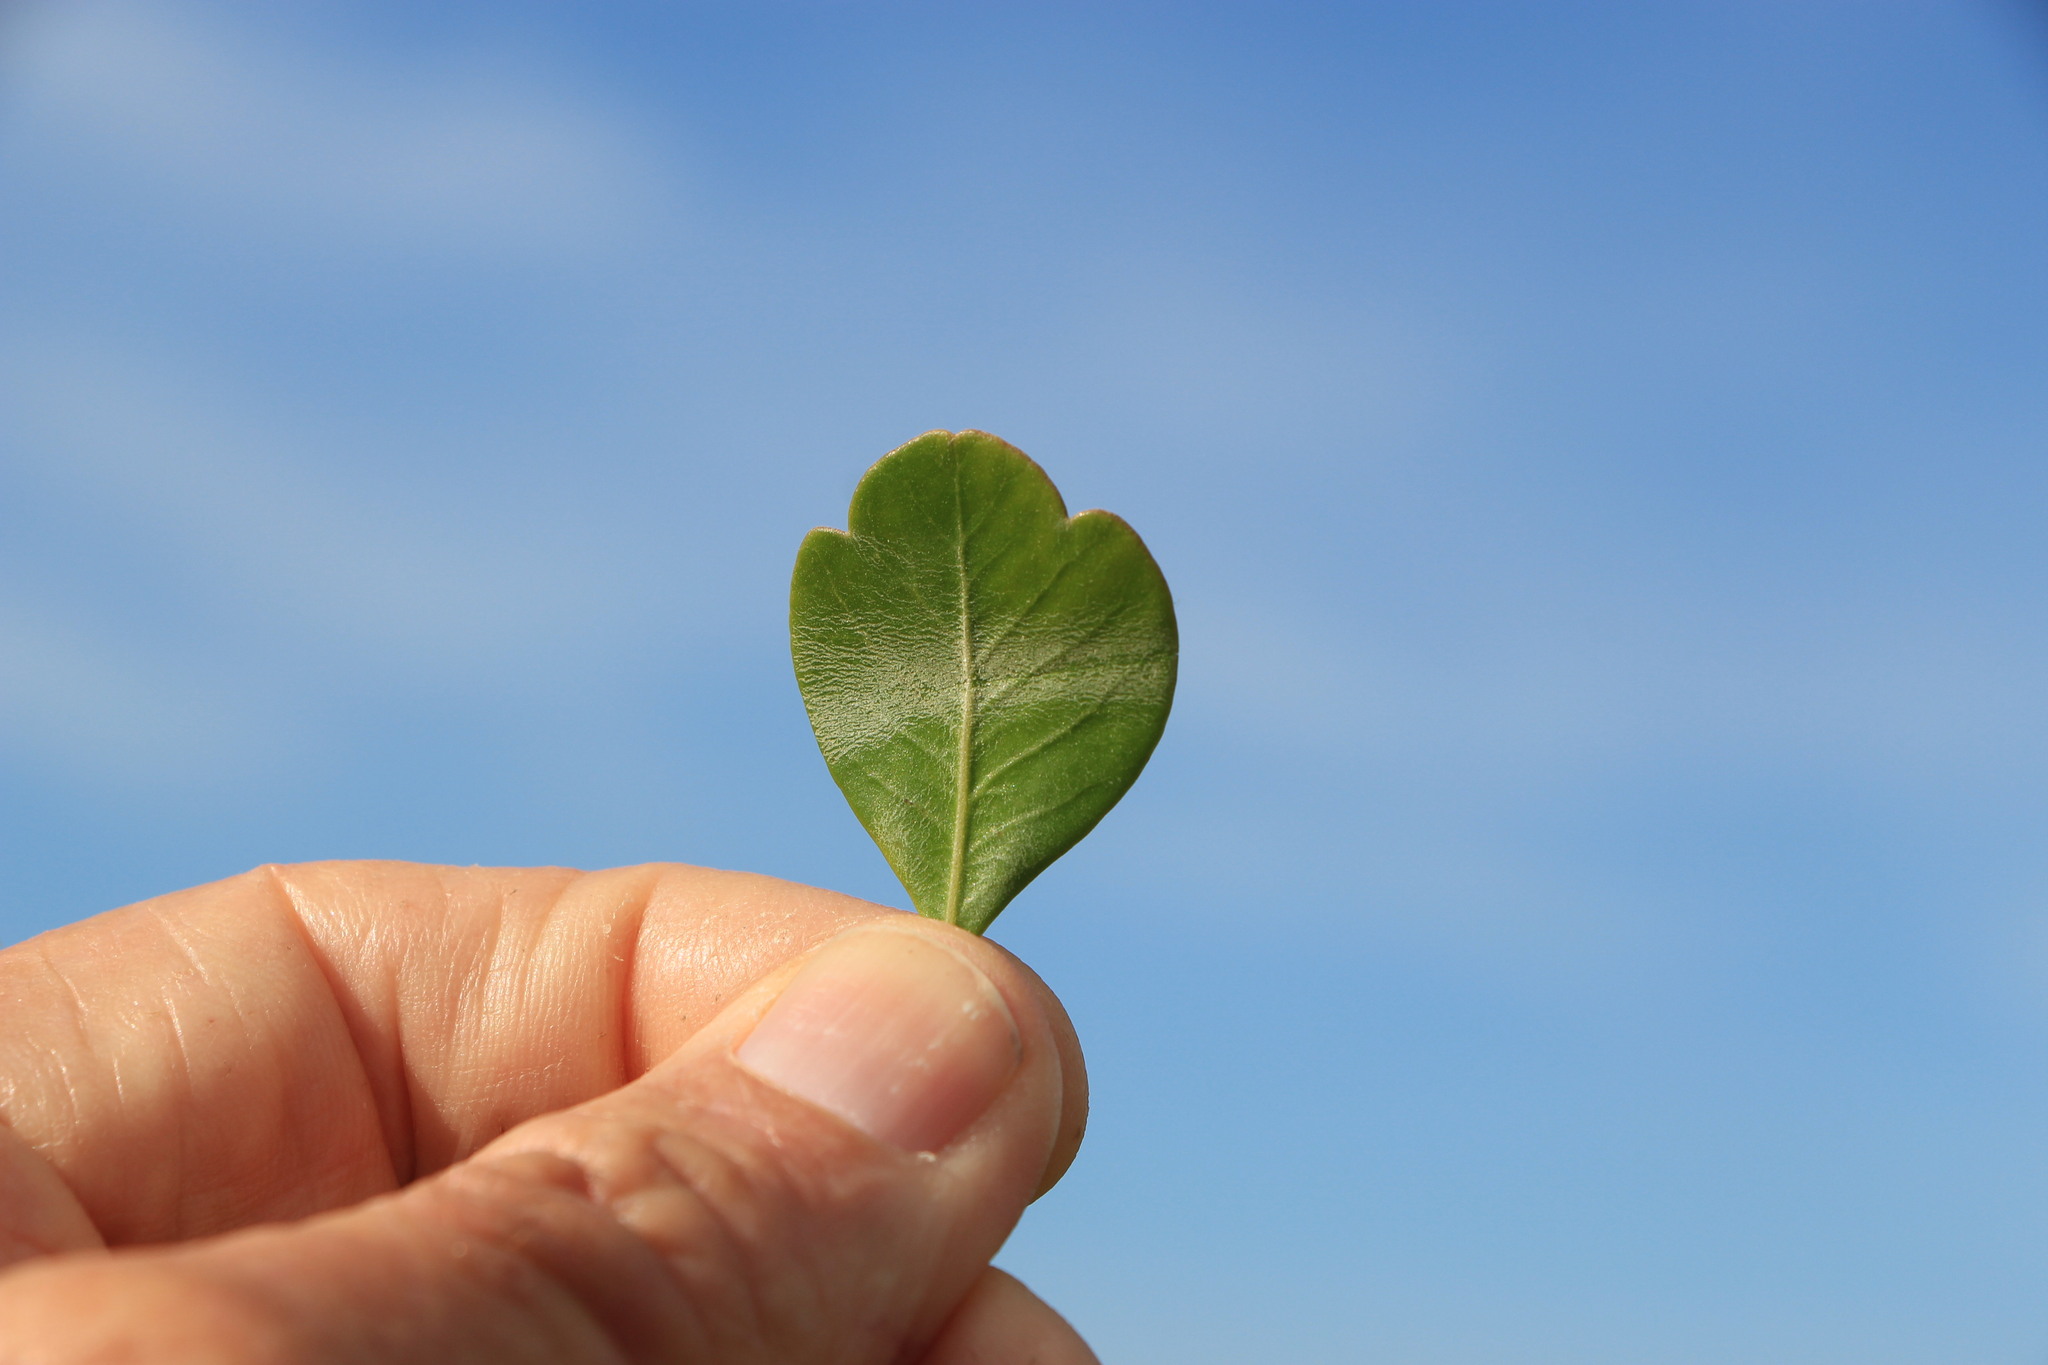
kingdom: Plantae
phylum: Tracheophyta
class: Magnoliopsida
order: Sapindales
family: Anacardiaceae
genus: Searsia
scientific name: Searsia lucida
